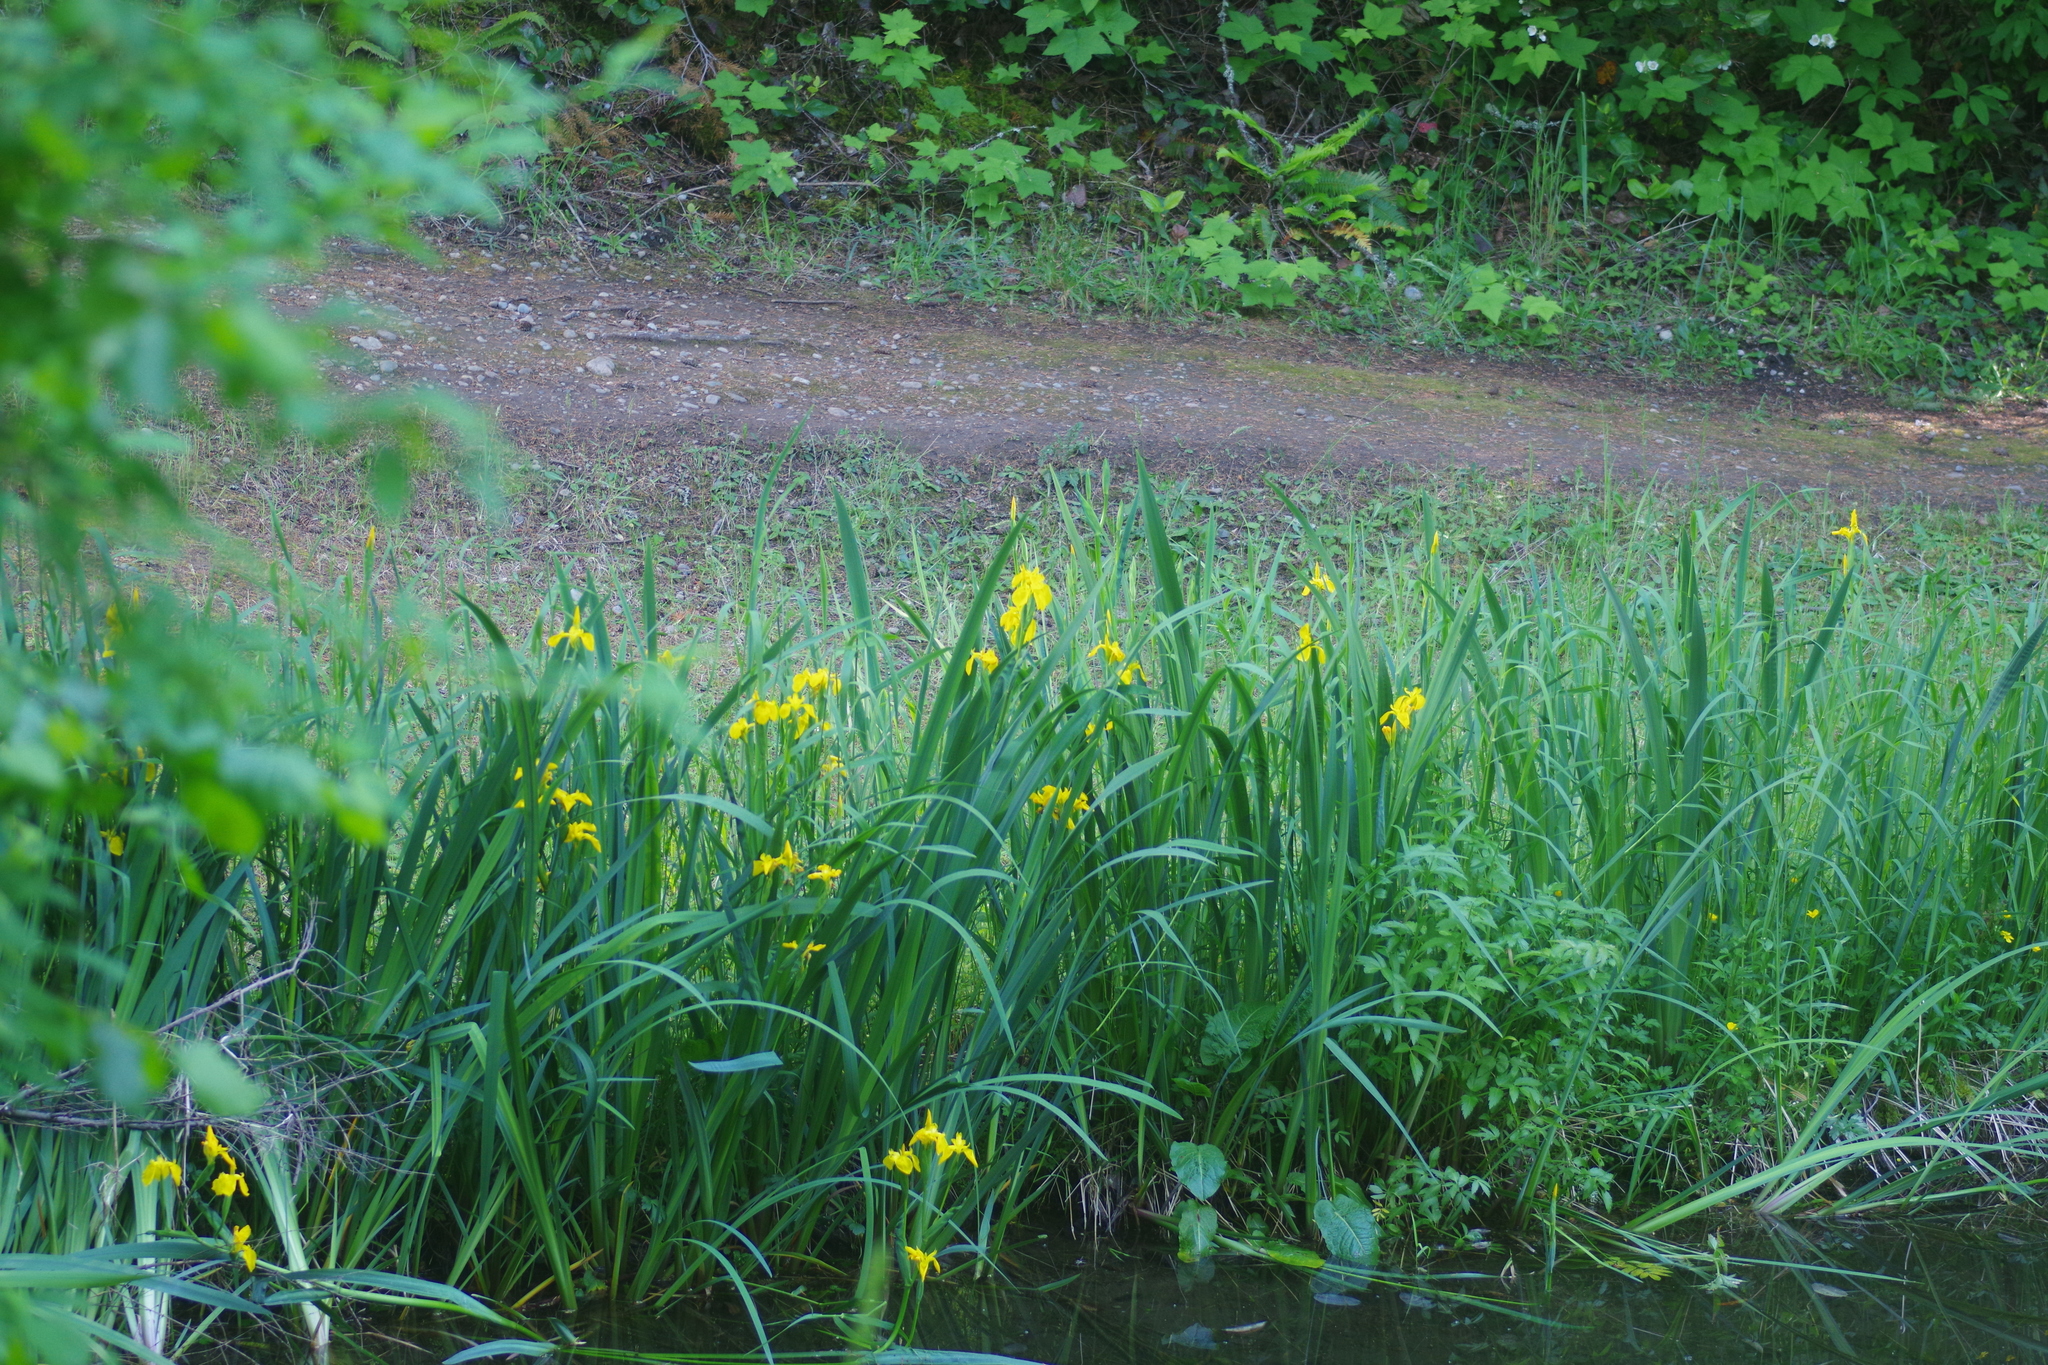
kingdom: Plantae
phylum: Tracheophyta
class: Liliopsida
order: Asparagales
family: Iridaceae
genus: Iris
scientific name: Iris pseudacorus
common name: Yellow flag
